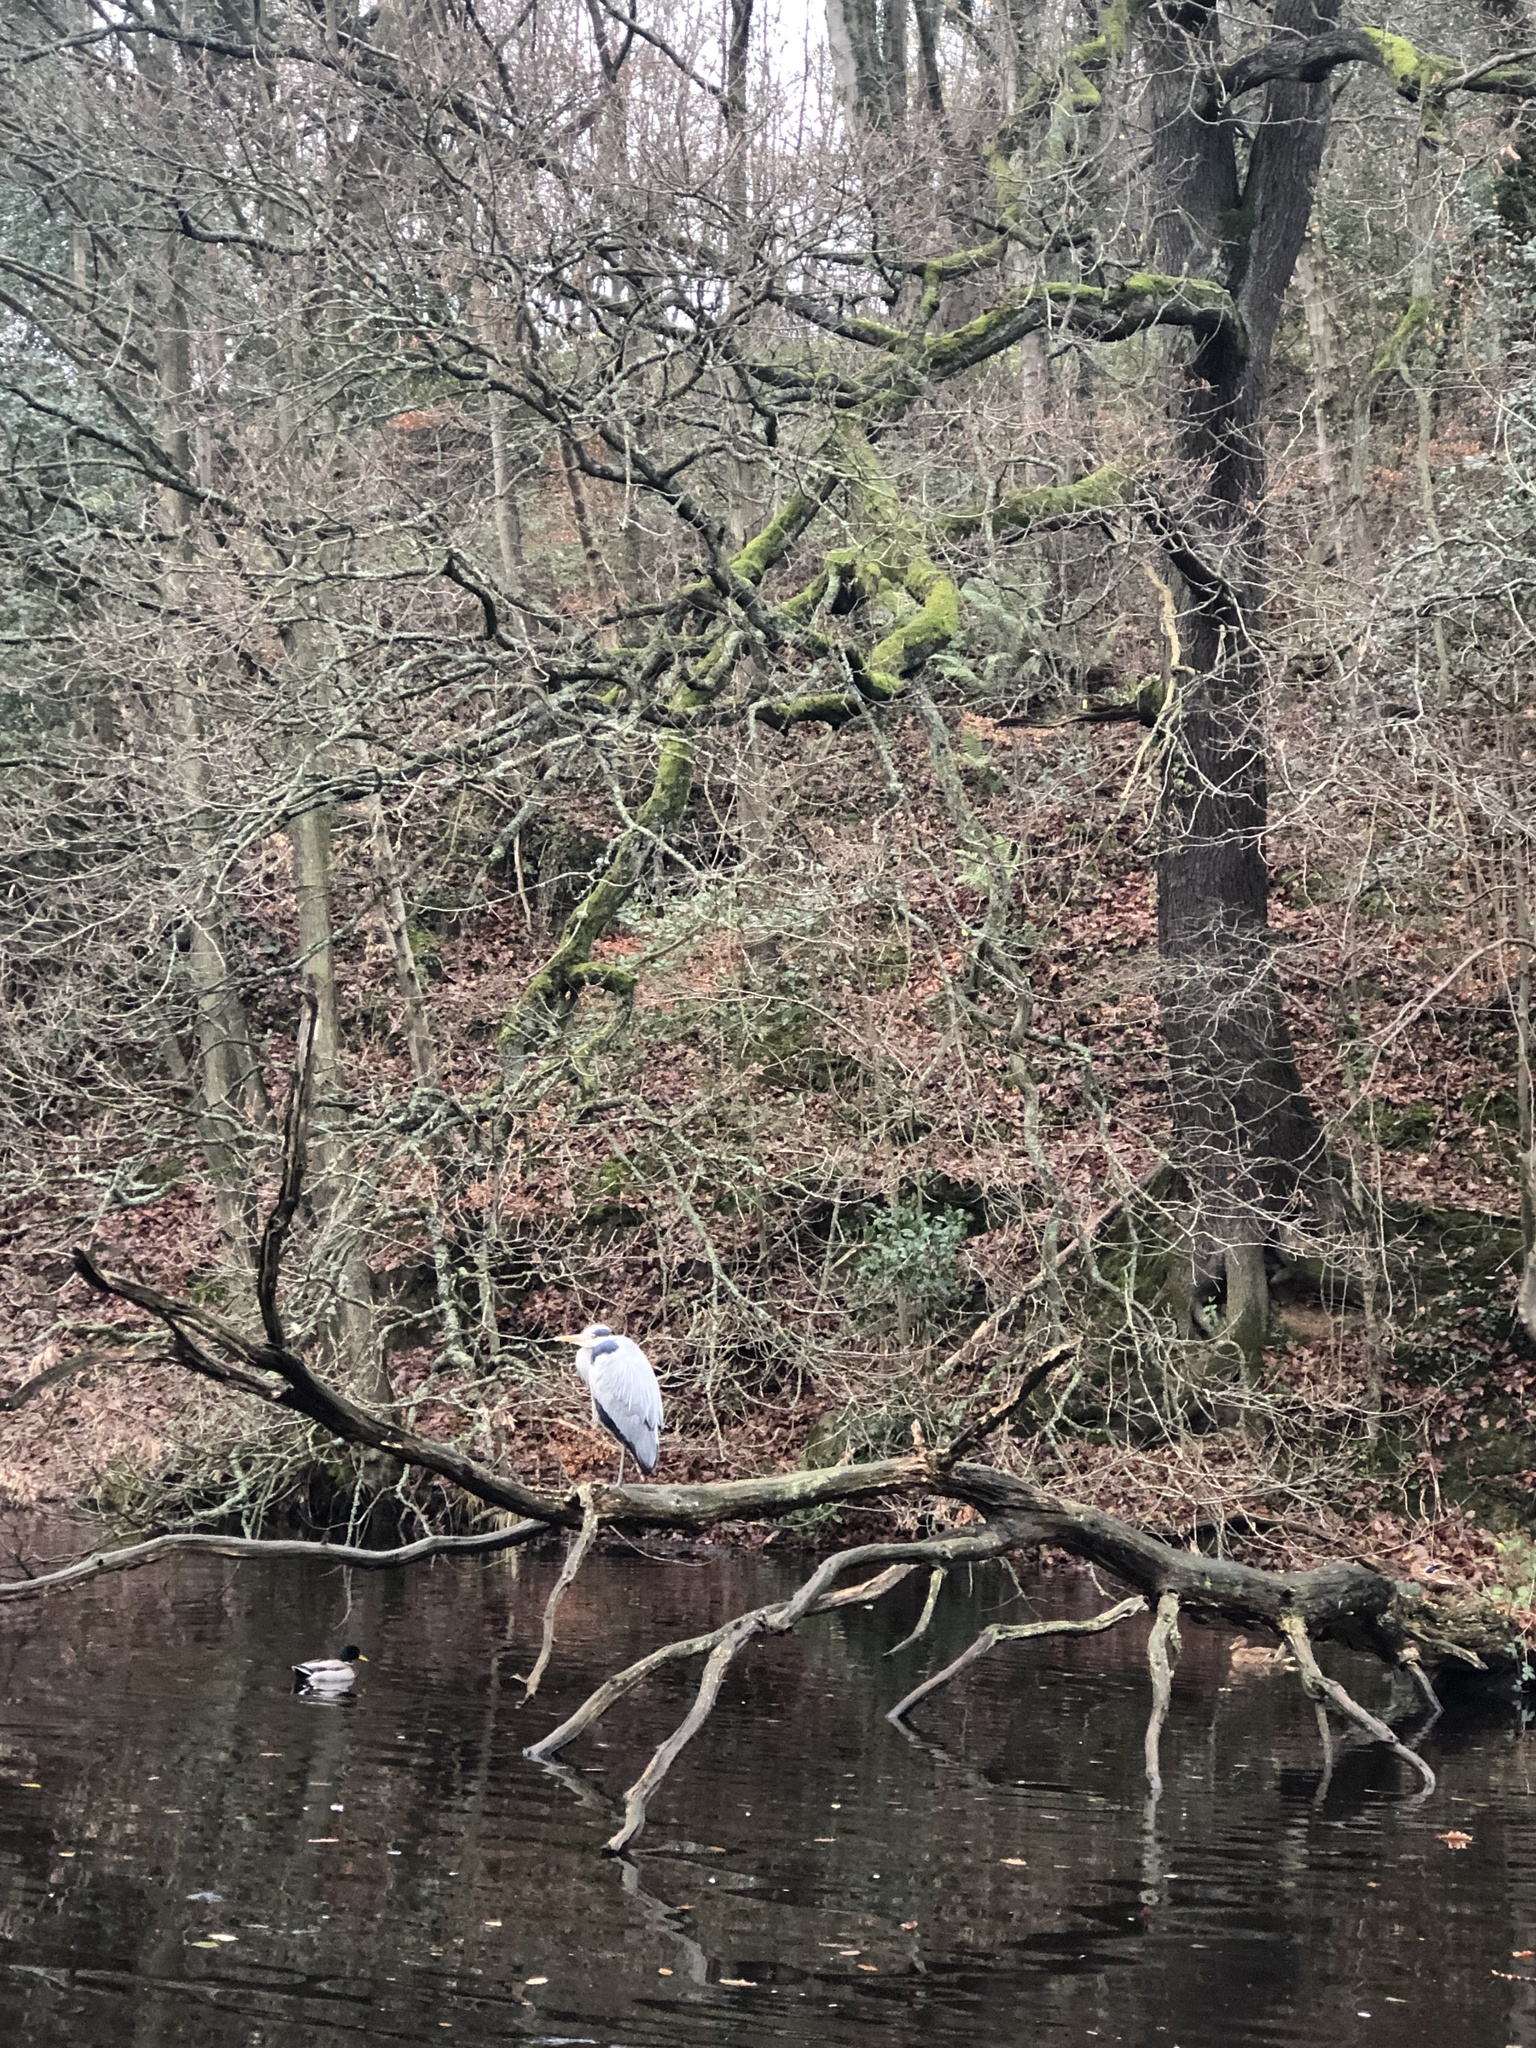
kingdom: Animalia
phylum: Chordata
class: Aves
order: Pelecaniformes
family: Ardeidae
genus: Ardea
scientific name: Ardea cinerea
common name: Grey heron
